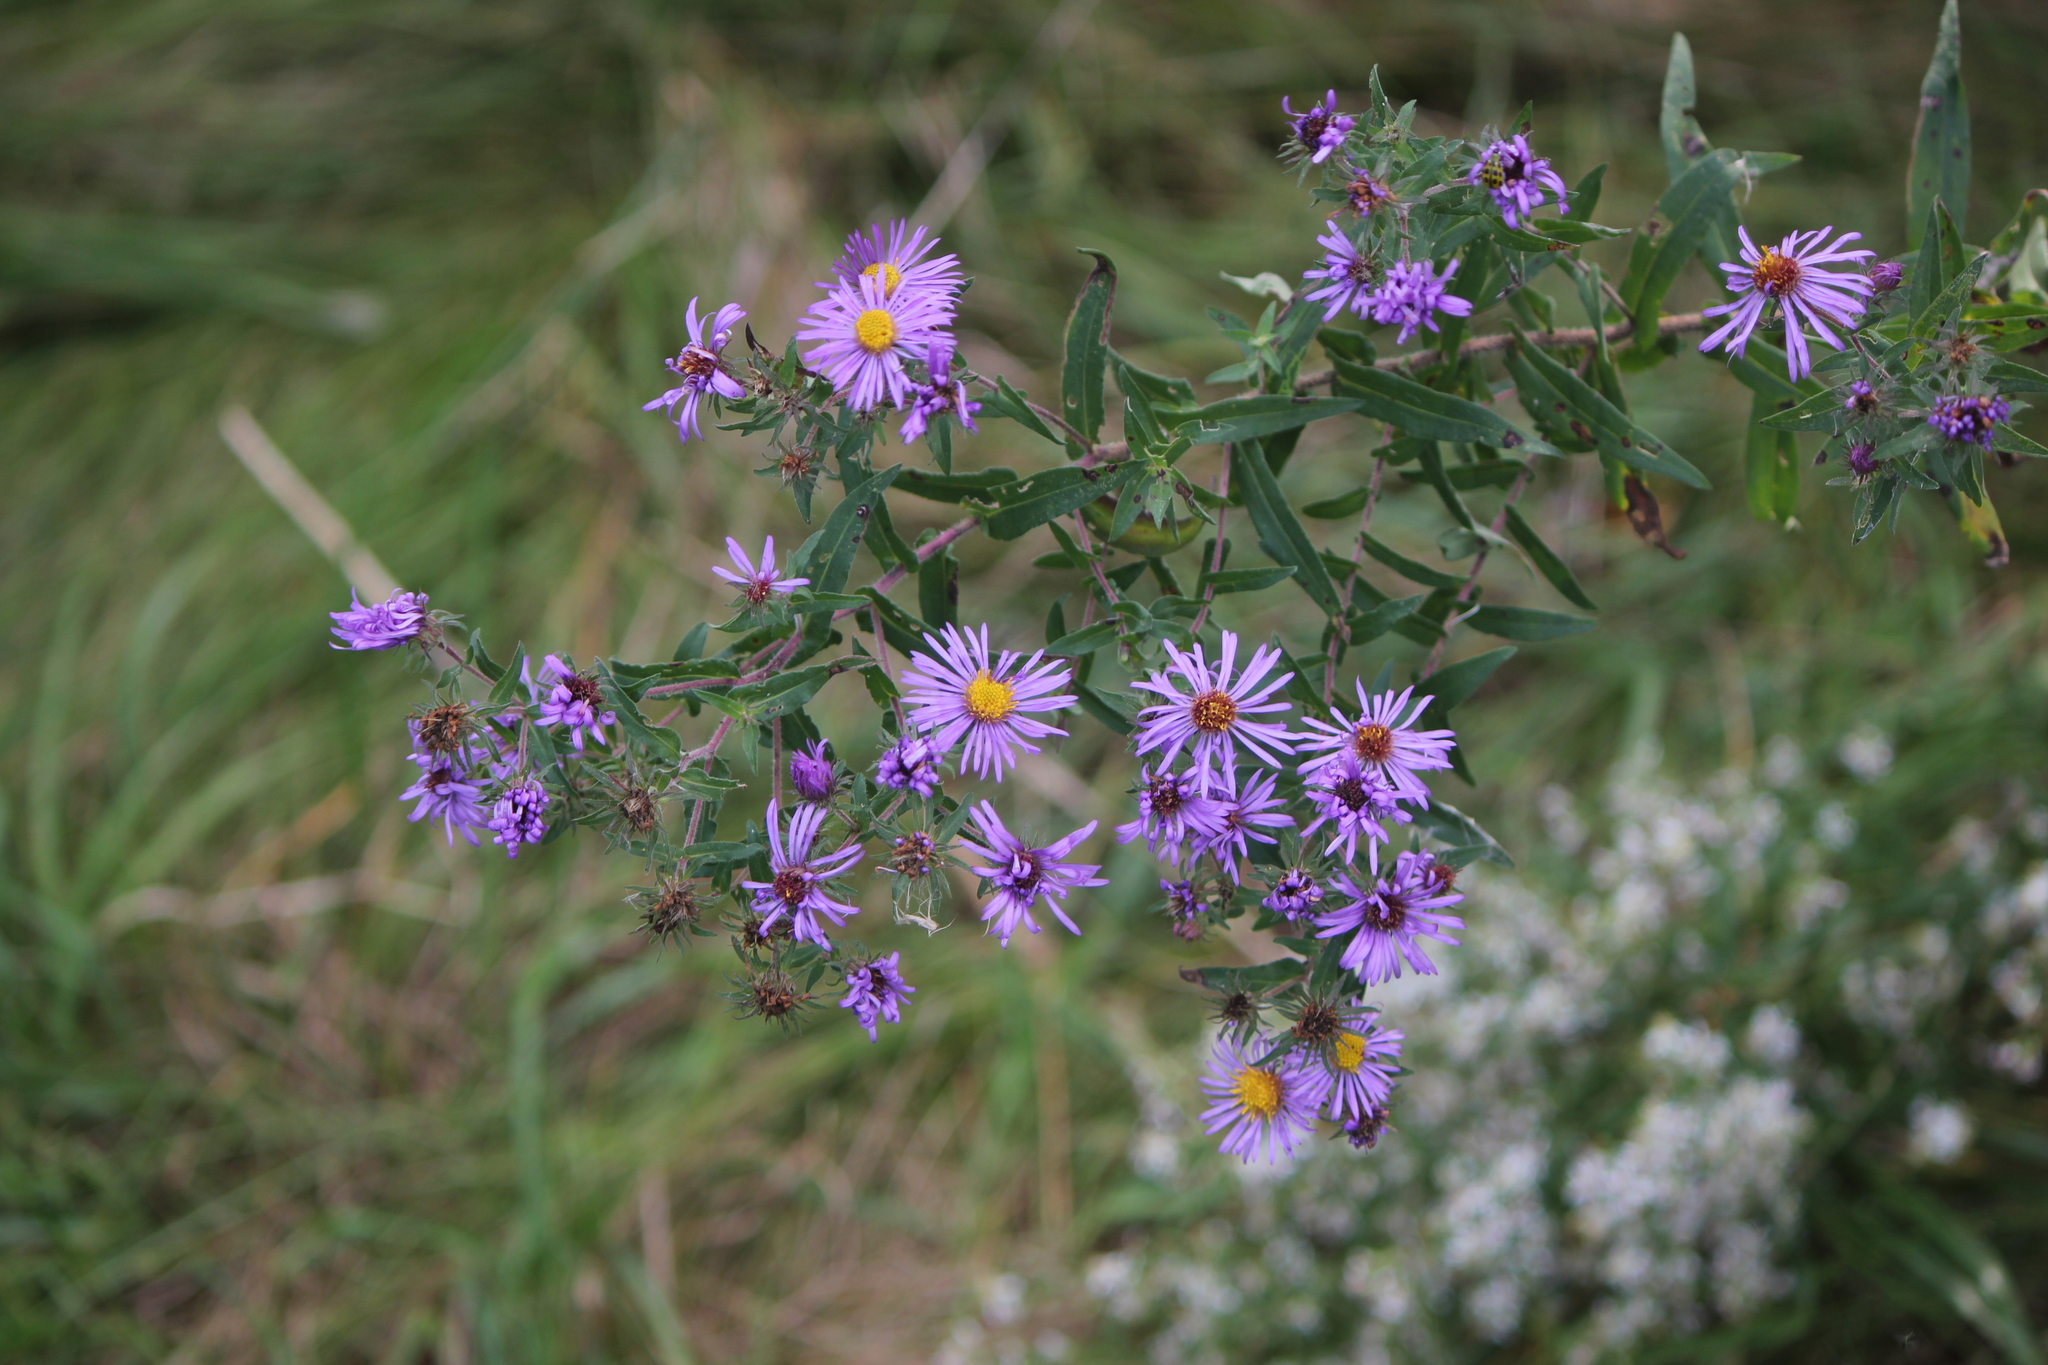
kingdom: Plantae
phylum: Tracheophyta
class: Magnoliopsida
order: Asterales
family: Asteraceae
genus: Symphyotrichum
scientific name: Symphyotrichum novae-angliae
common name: Michaelmas daisy
